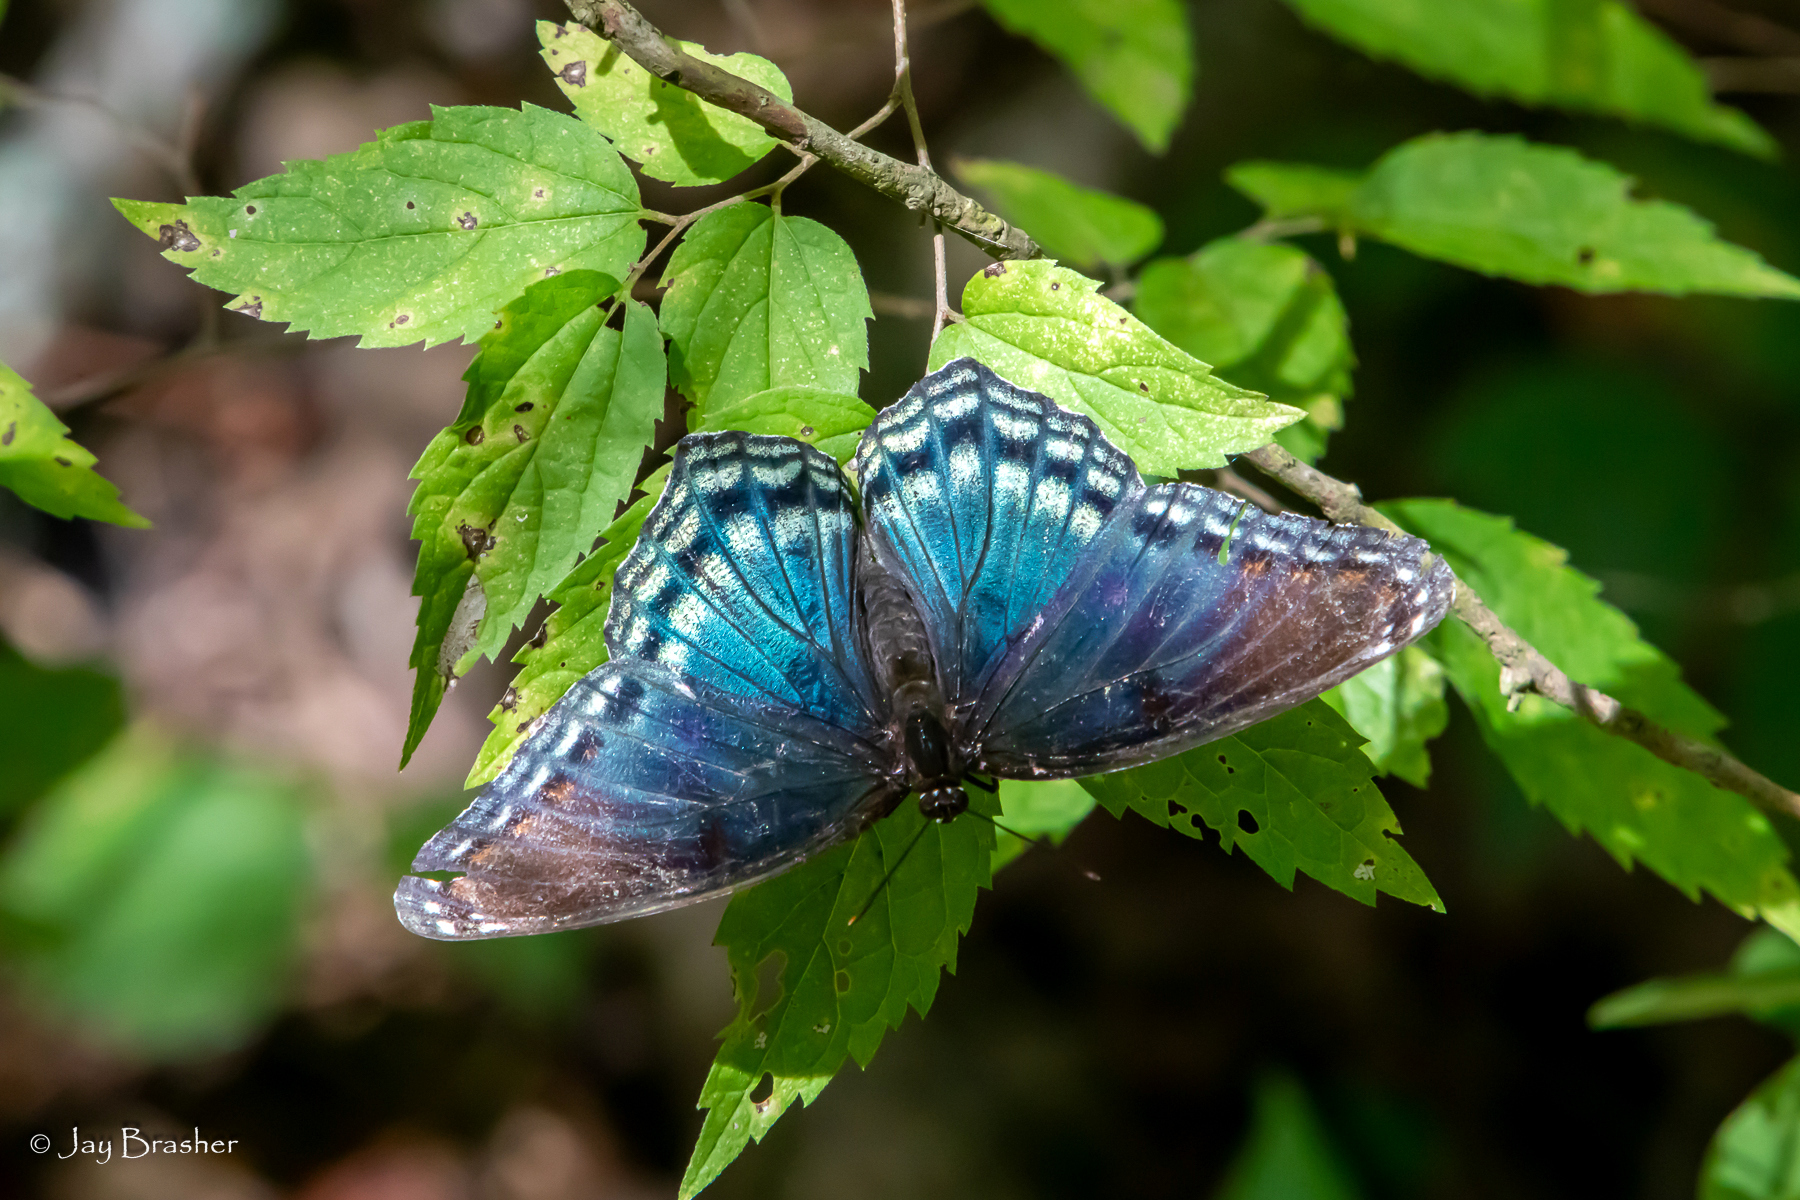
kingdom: Animalia
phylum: Arthropoda
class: Insecta
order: Lepidoptera
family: Nymphalidae
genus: Limenitis
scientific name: Limenitis astyanax
